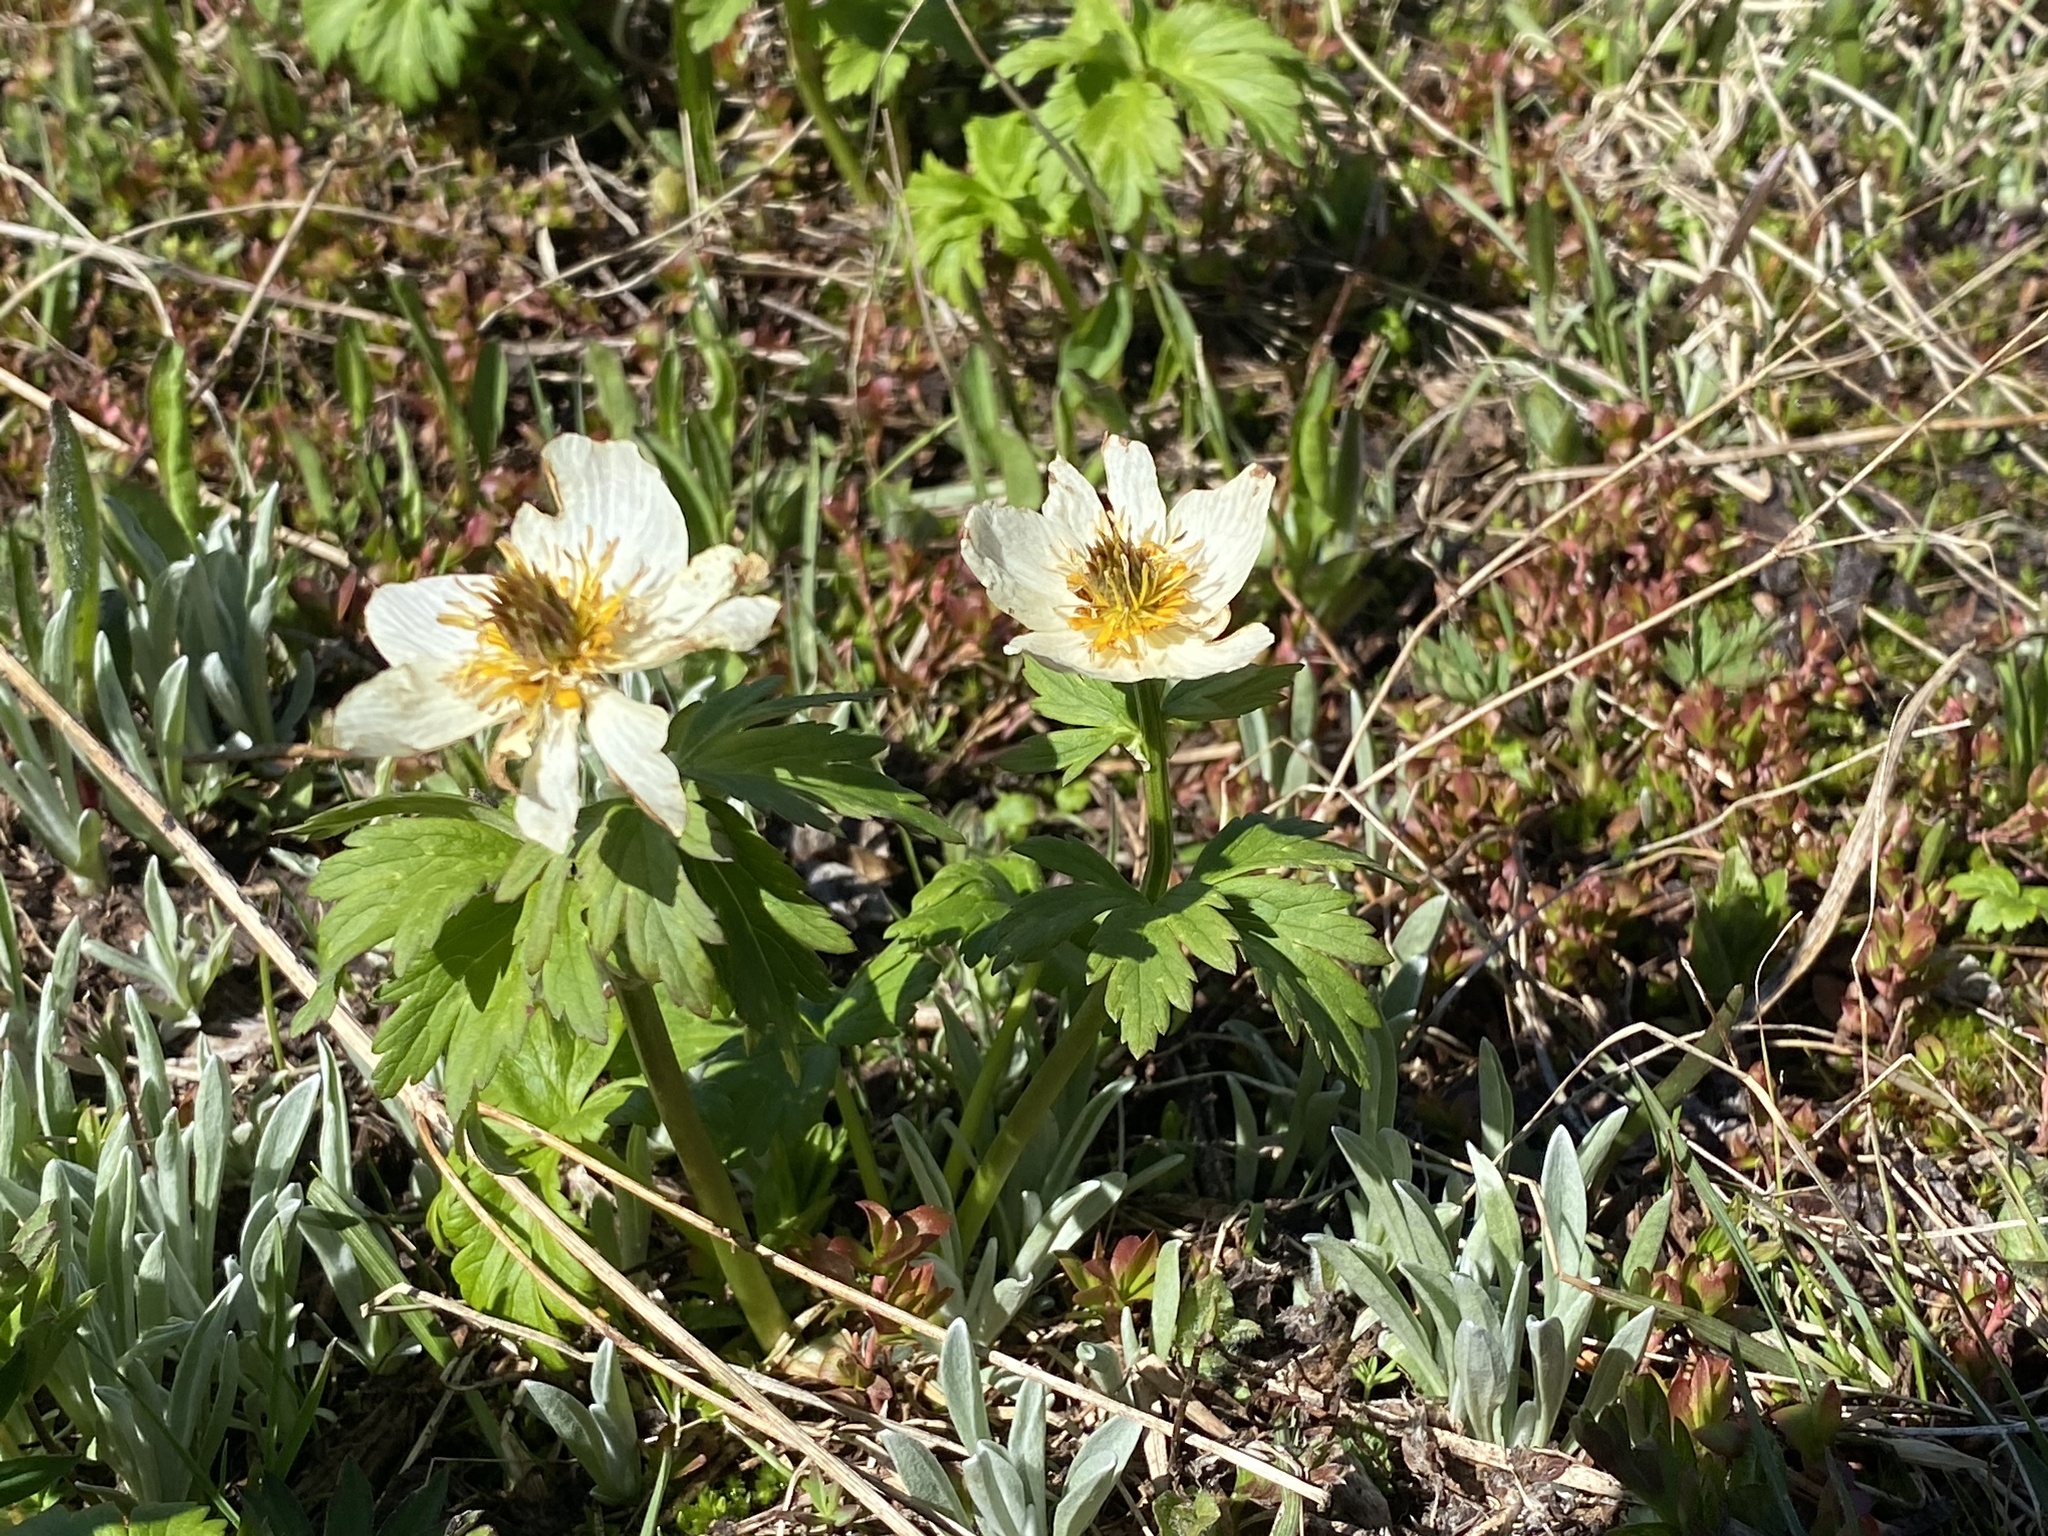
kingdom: Plantae
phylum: Tracheophyta
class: Magnoliopsida
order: Ranunculales
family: Ranunculaceae
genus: Trollius
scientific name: Trollius laxus
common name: American globeflower
